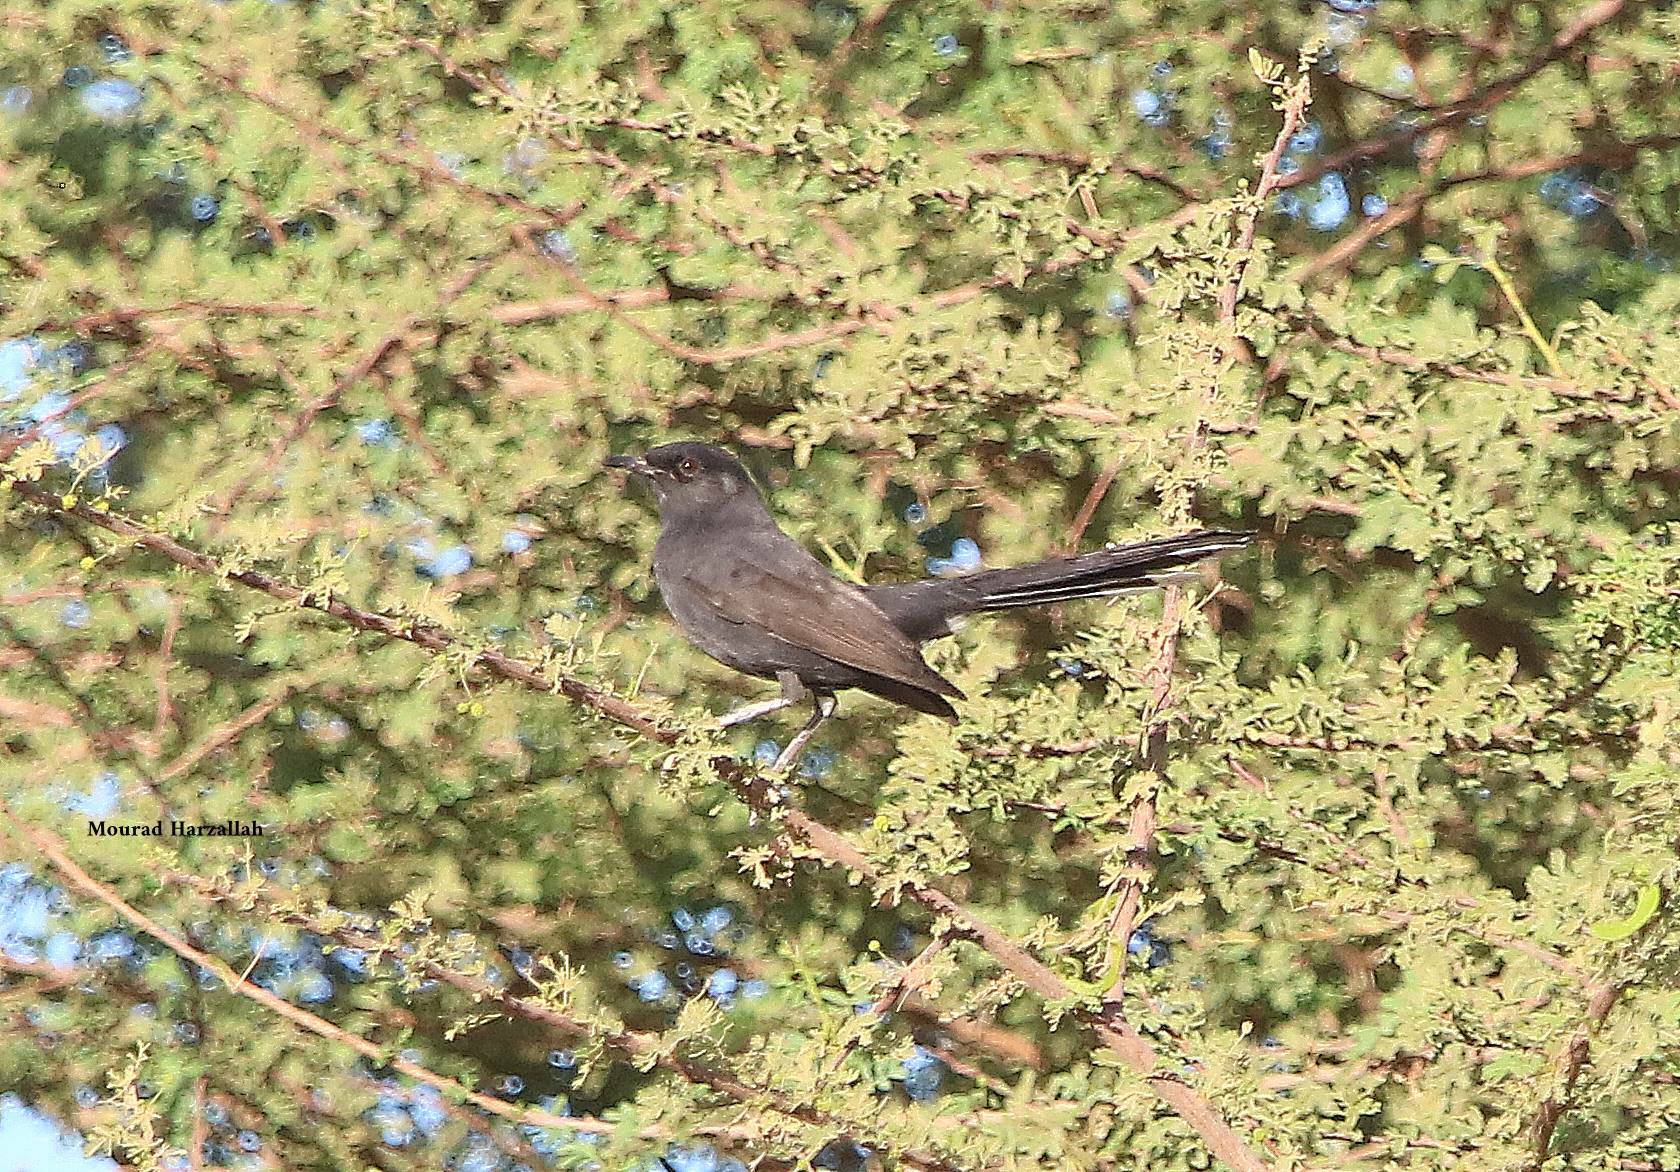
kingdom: Animalia
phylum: Chordata
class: Aves
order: Passeriformes
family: Muscicapidae
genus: Cercotrichas
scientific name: Cercotrichas podobe
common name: Black scrub robin
